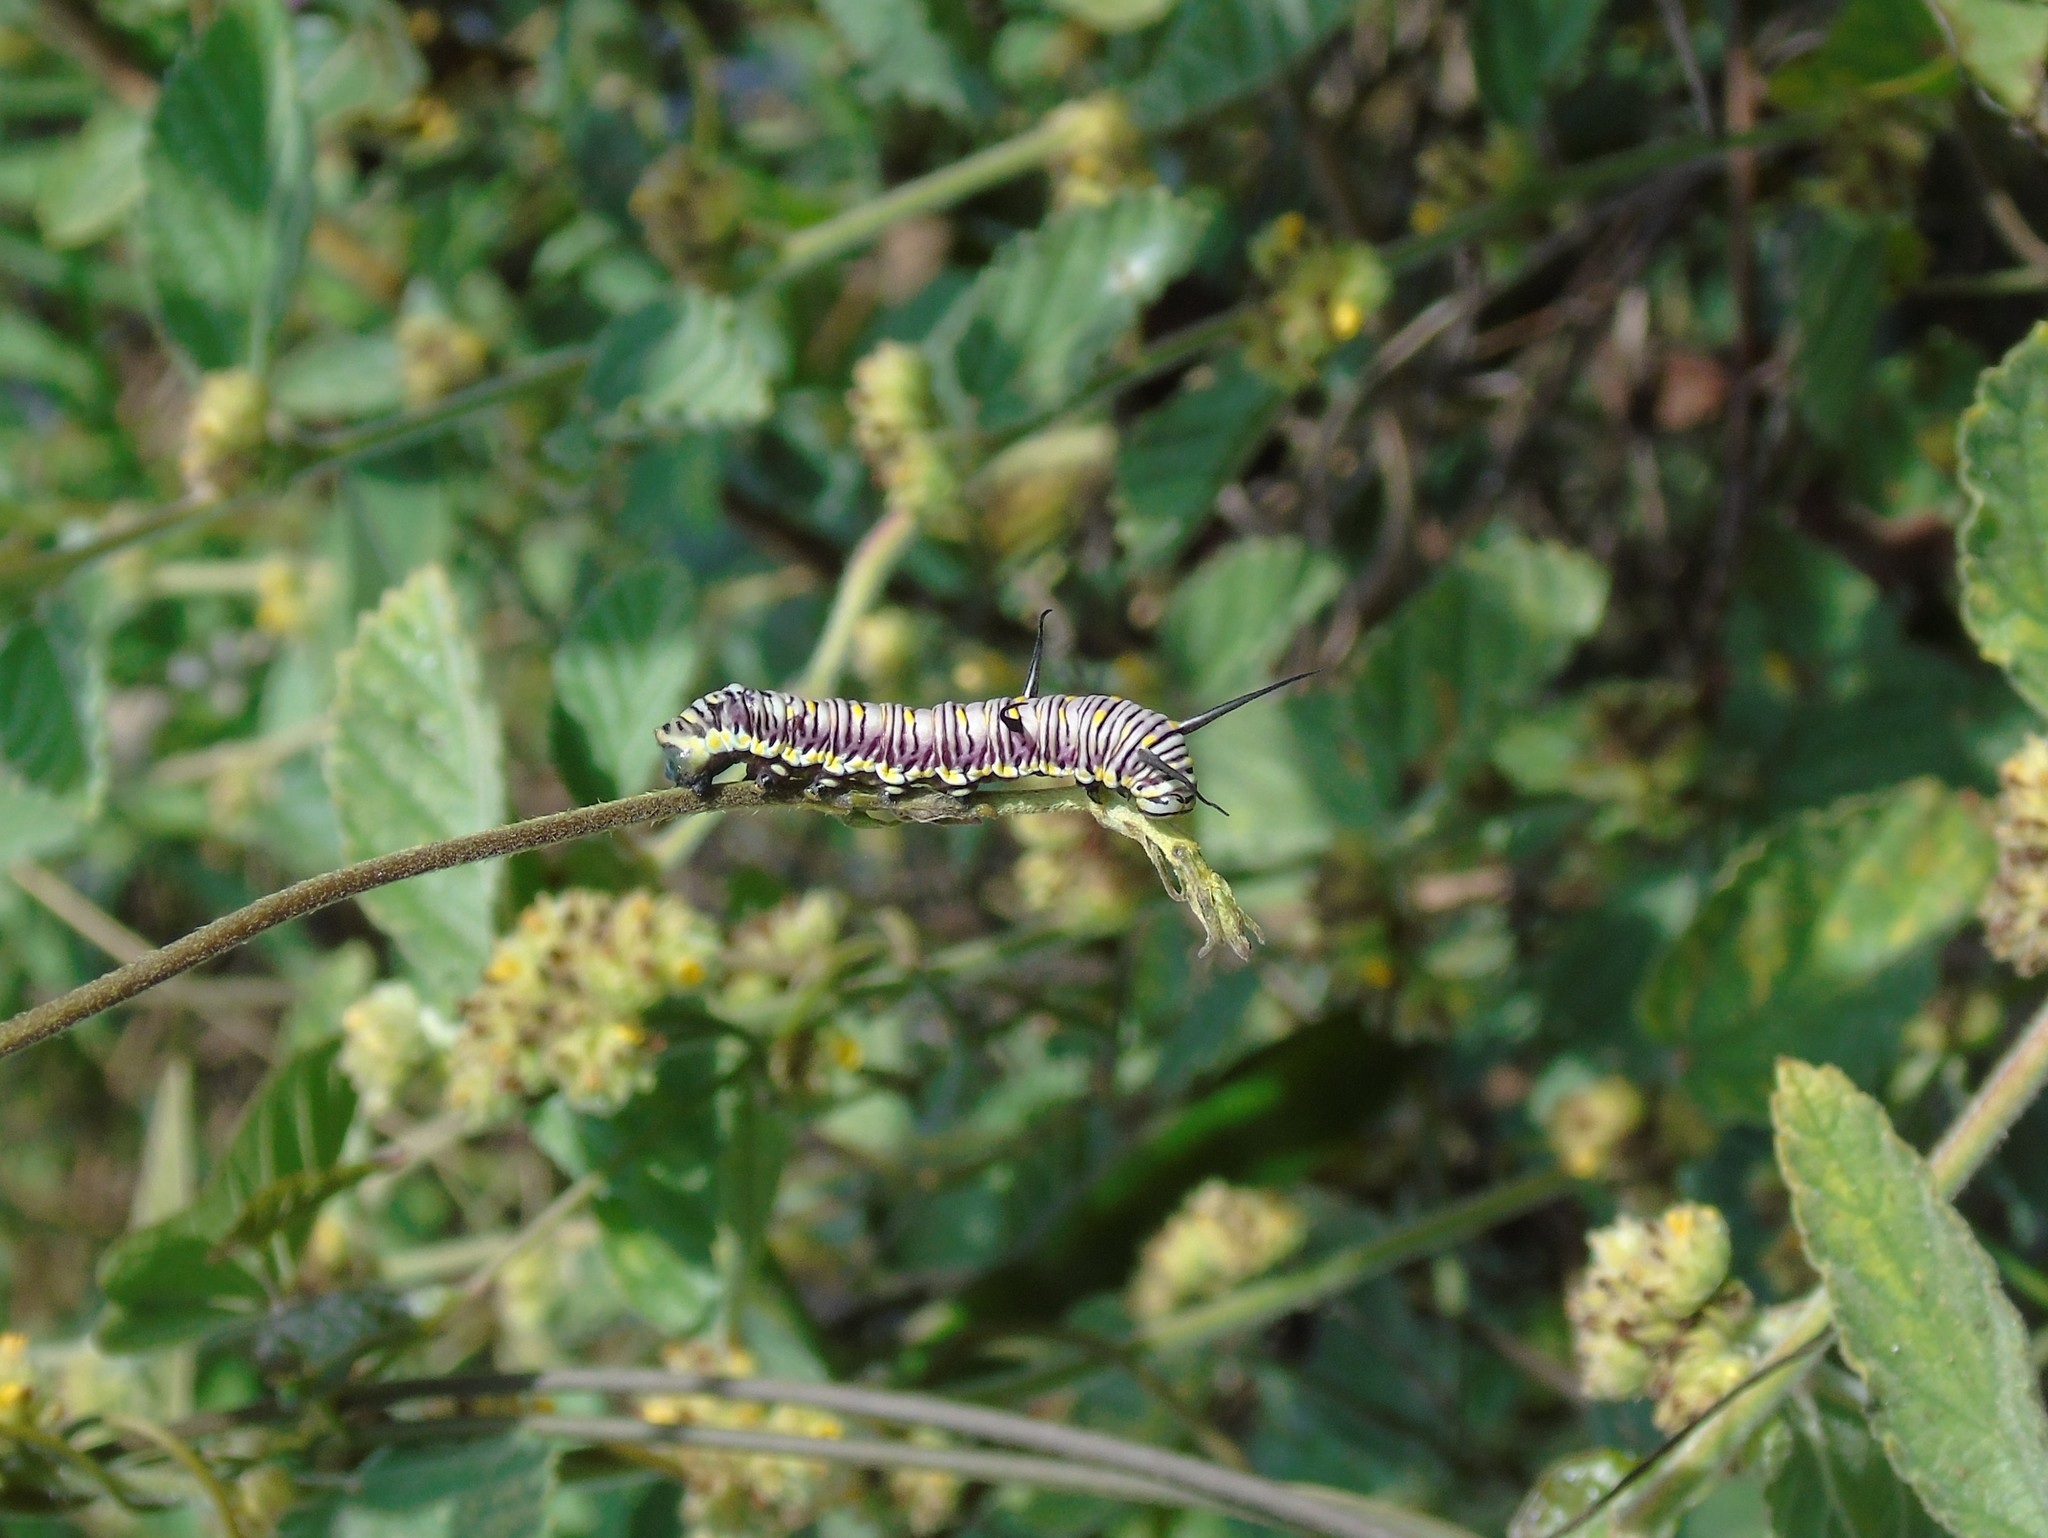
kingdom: Animalia
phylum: Arthropoda
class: Insecta
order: Lepidoptera
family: Nymphalidae
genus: Danaus
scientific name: Danaus
